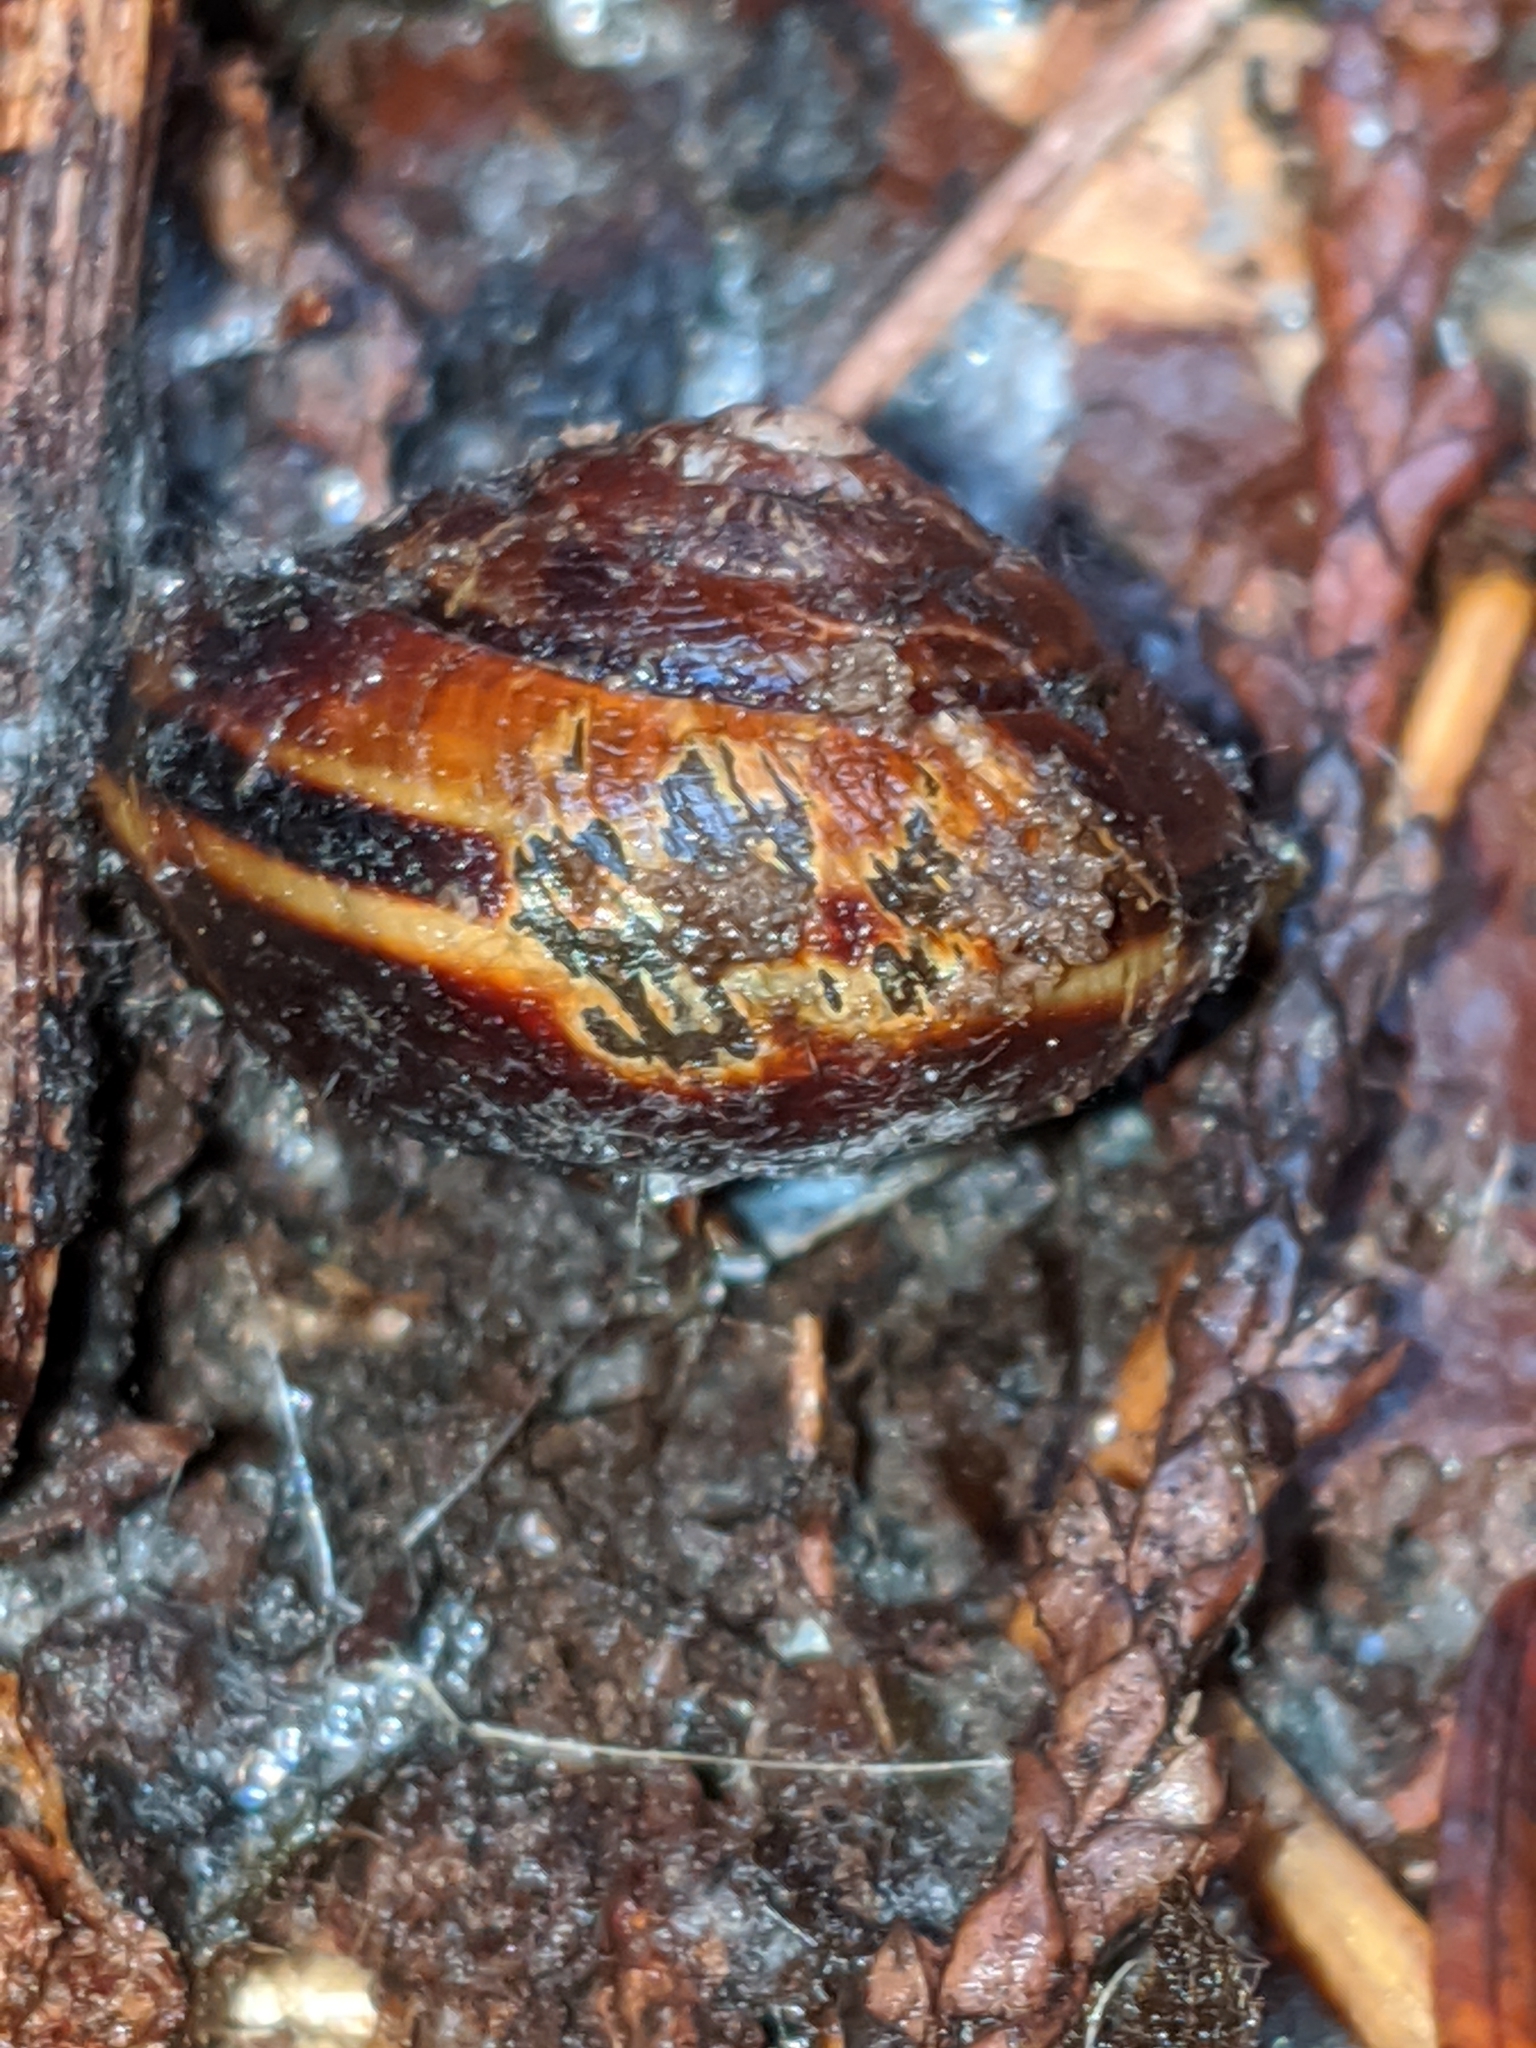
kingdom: Animalia
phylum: Mollusca
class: Gastropoda
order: Stylommatophora
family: Xanthonychidae
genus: Monadenia
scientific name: Monadenia fidelis
